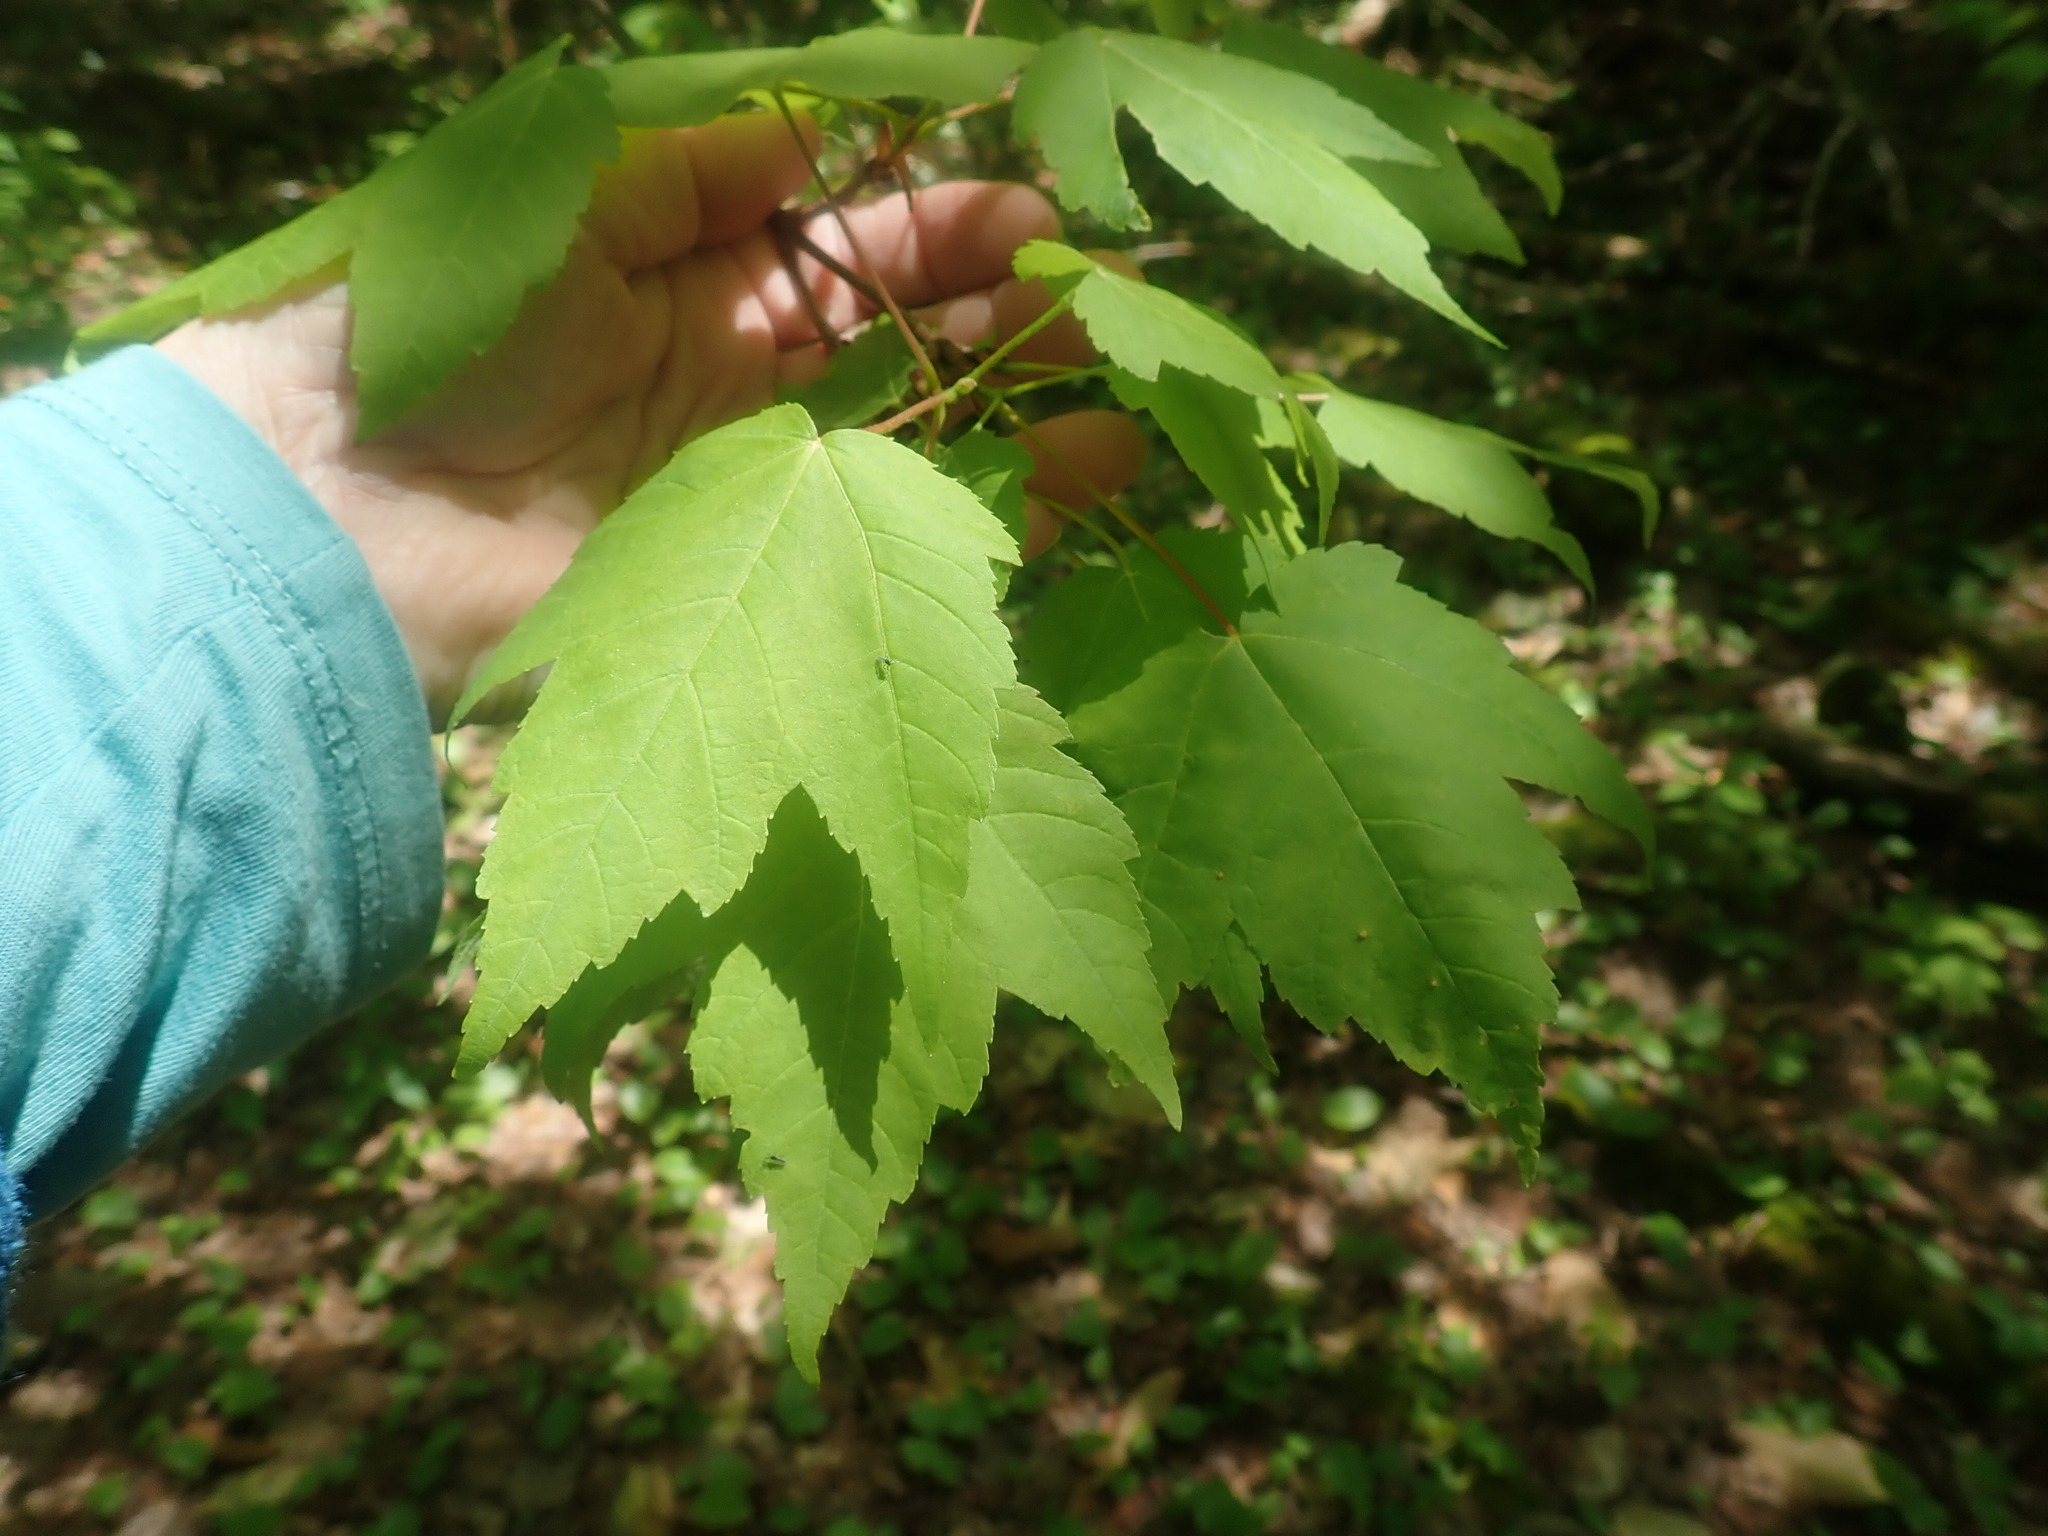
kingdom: Plantae
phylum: Tracheophyta
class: Magnoliopsida
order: Sapindales
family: Sapindaceae
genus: Acer
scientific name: Acer rubrum
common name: Red maple
